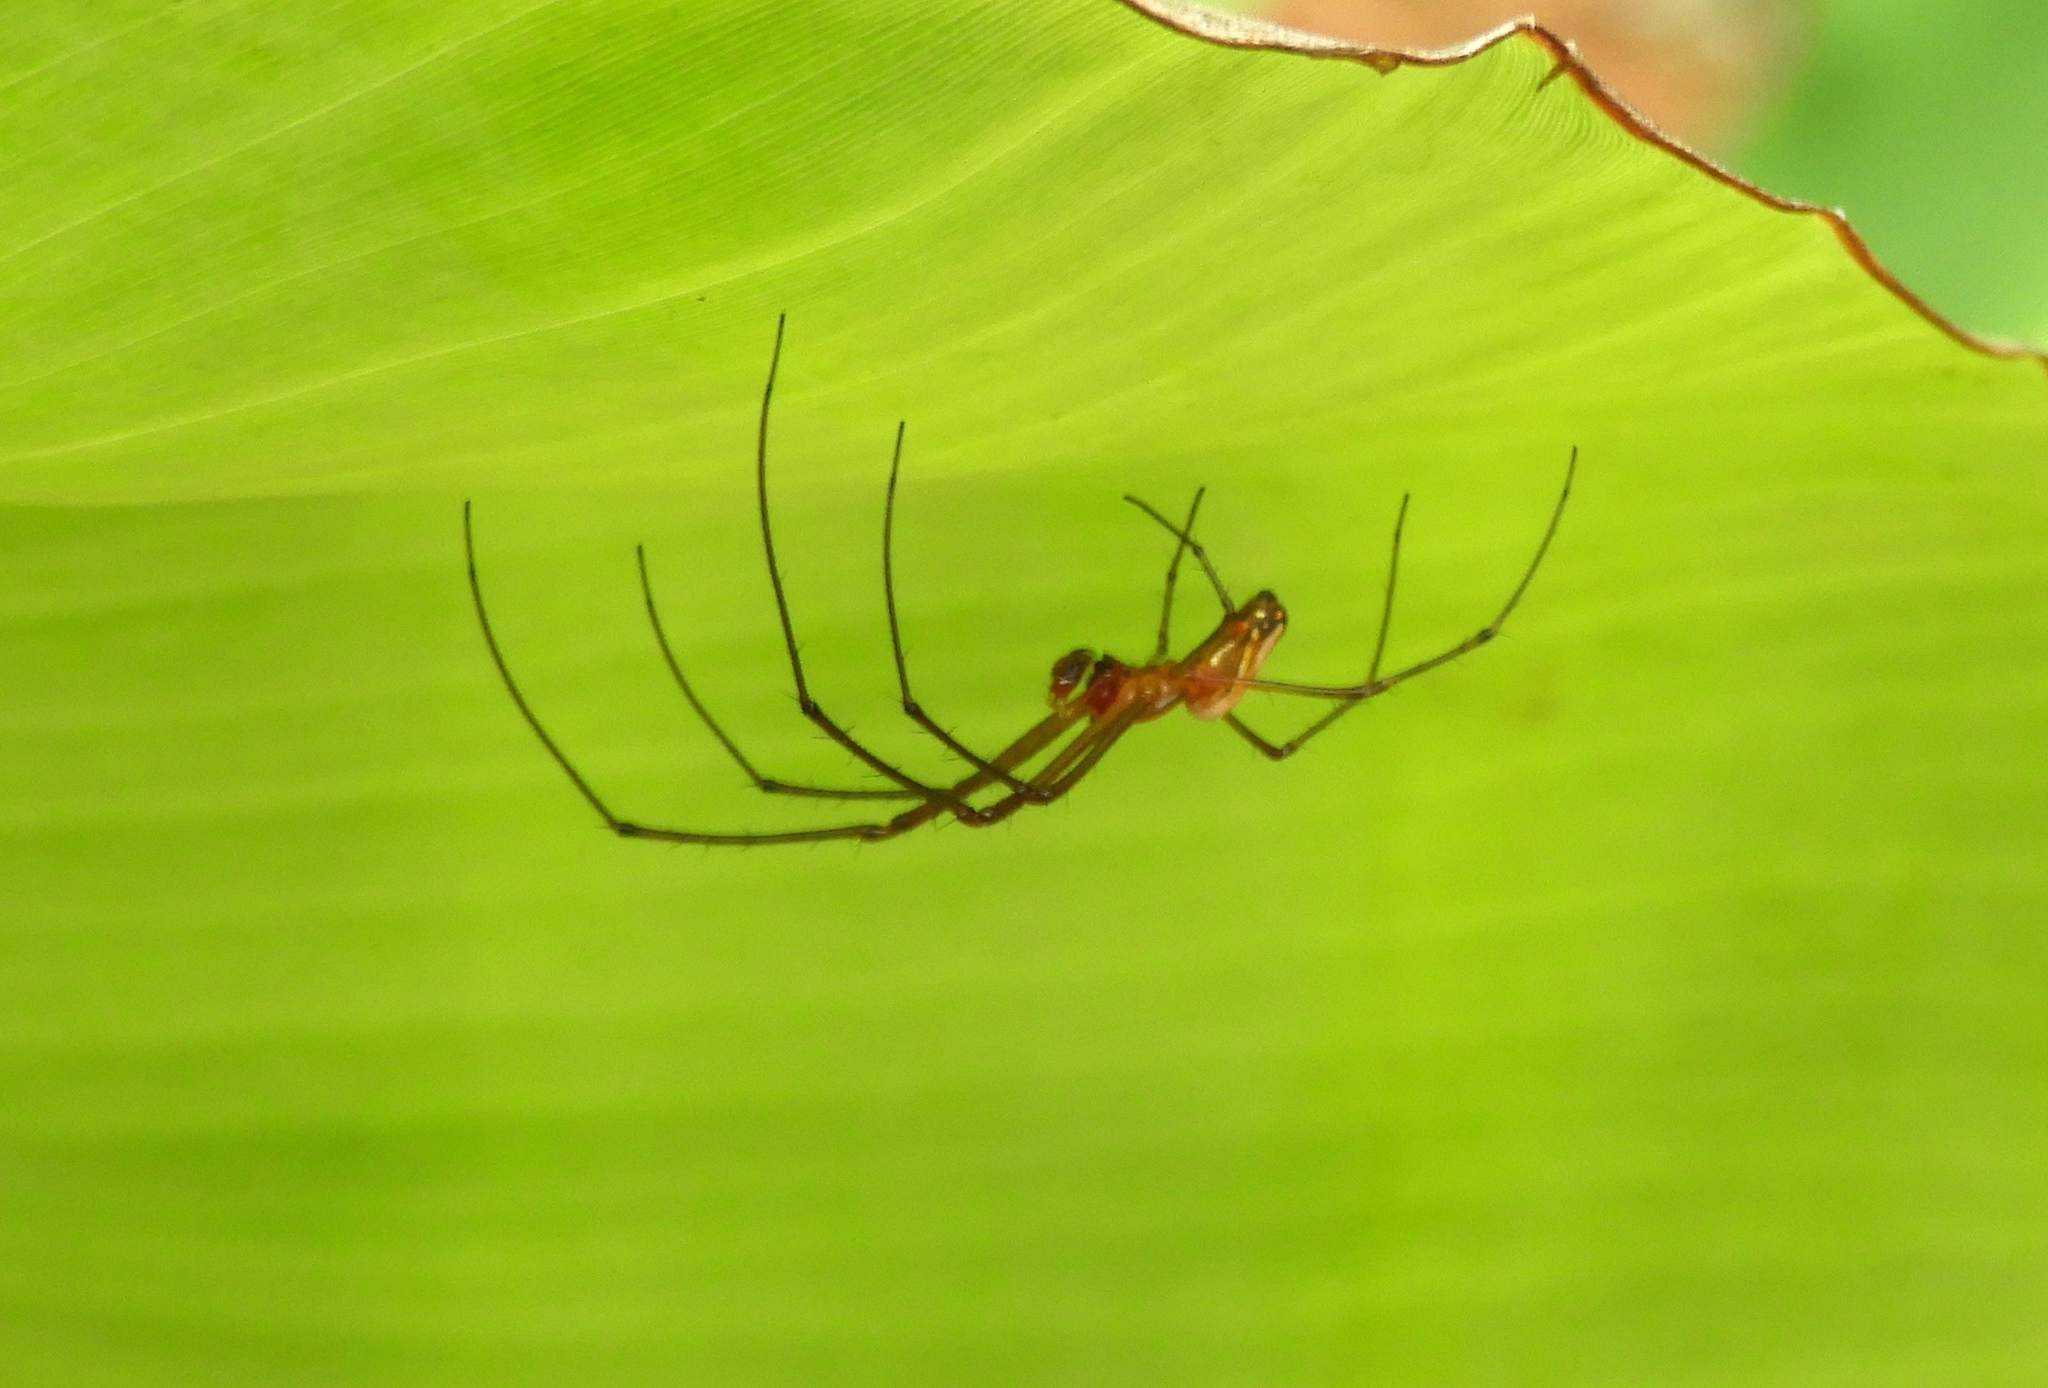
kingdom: Animalia
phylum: Arthropoda
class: Arachnida
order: Araneae
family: Tetragnathidae
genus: Leucauge
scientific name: Leucauge
